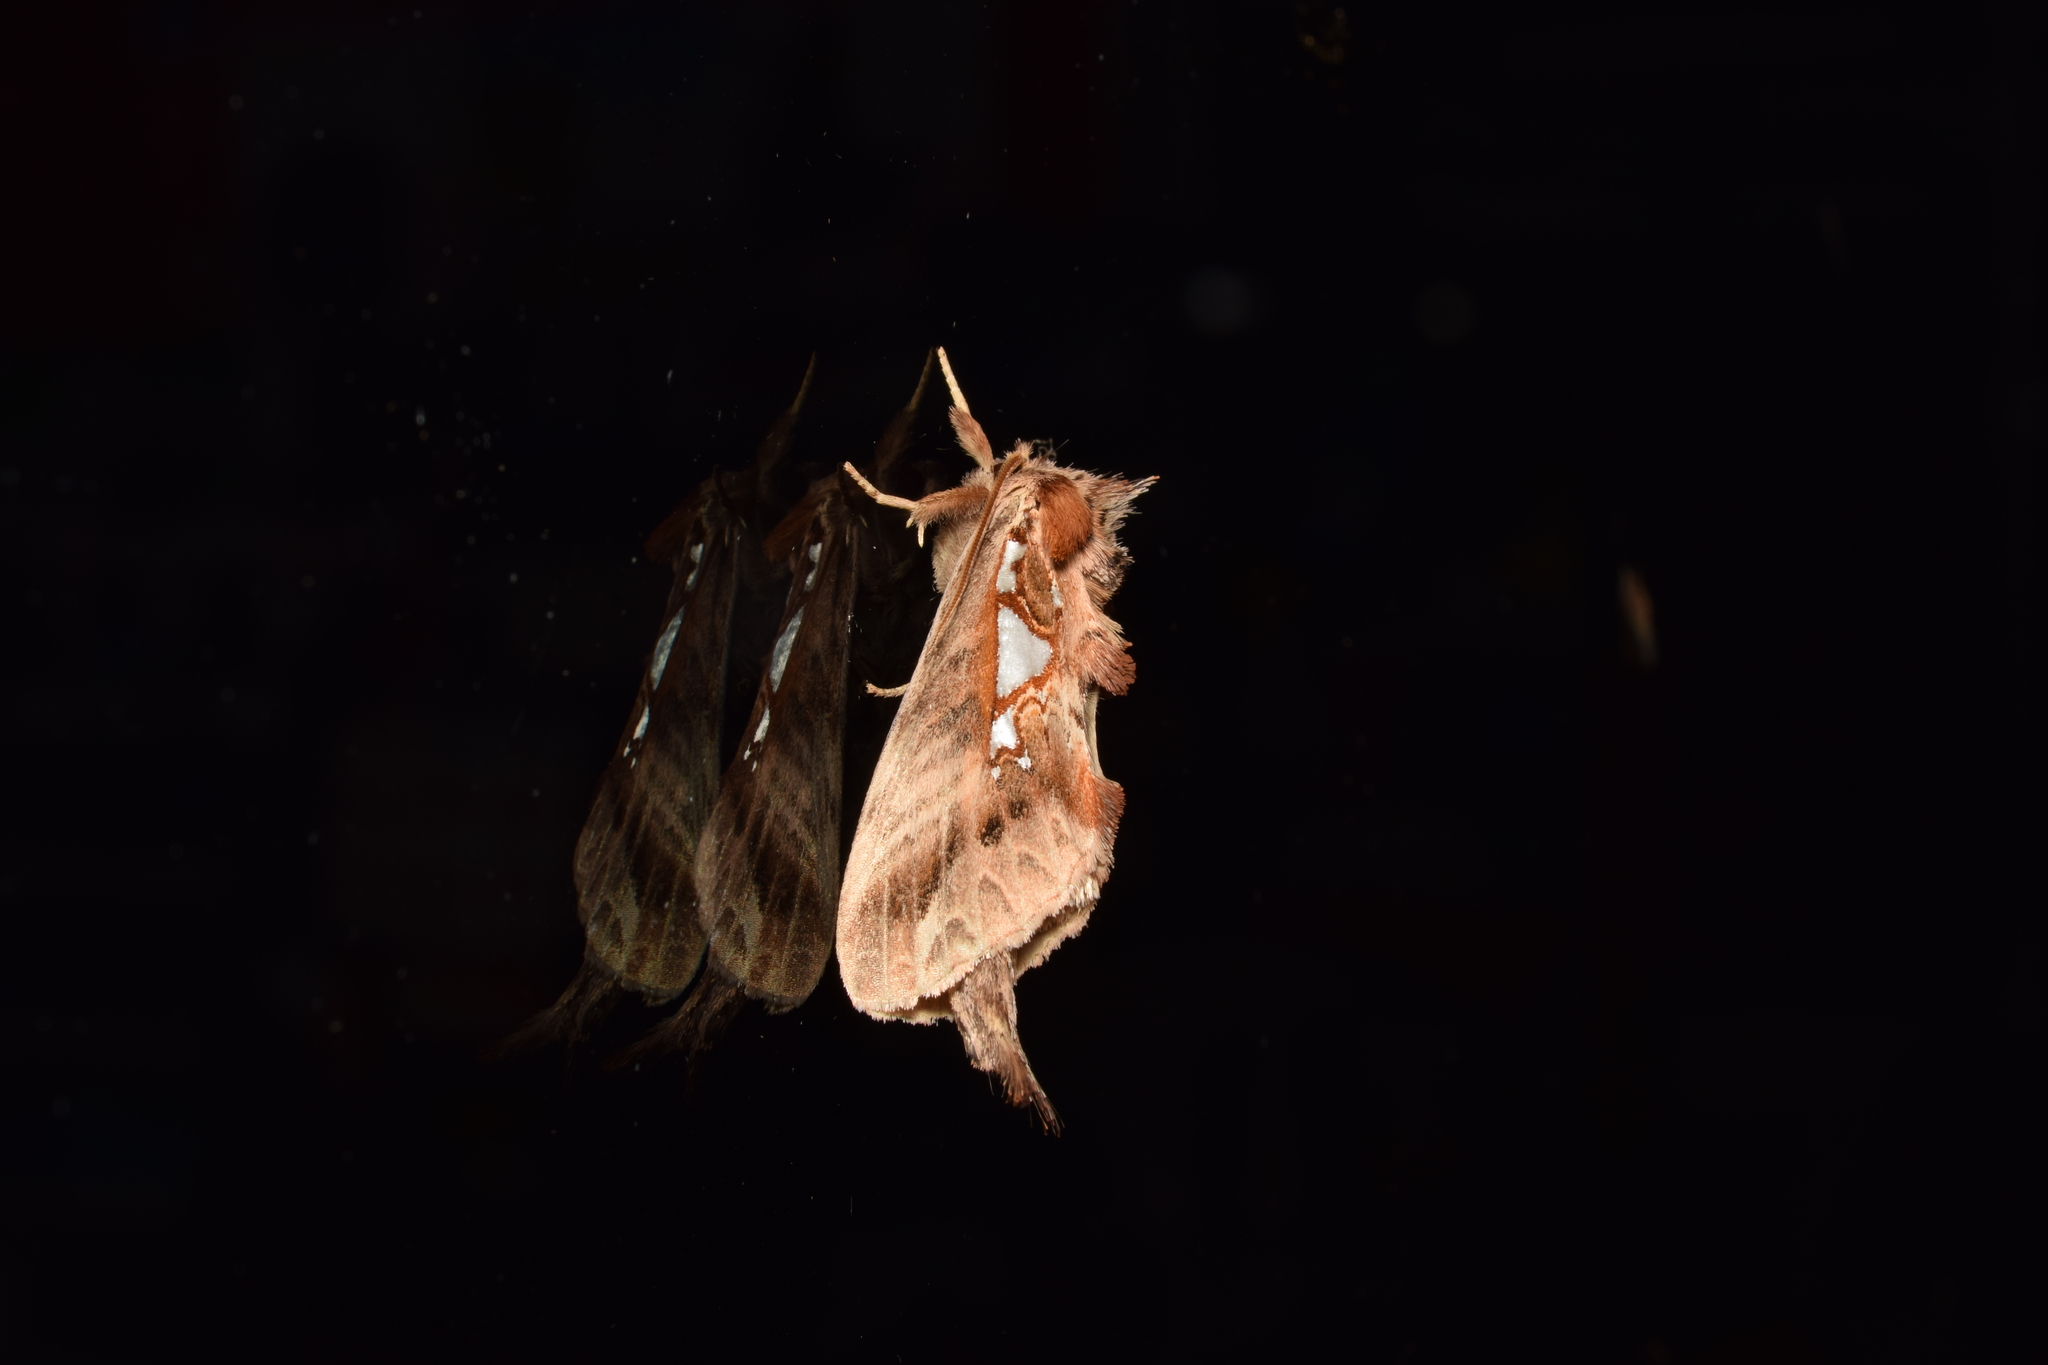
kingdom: Animalia
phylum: Arthropoda
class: Insecta
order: Lepidoptera
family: Notodontidae
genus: Spatalia
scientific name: Spatalia doerriesi
